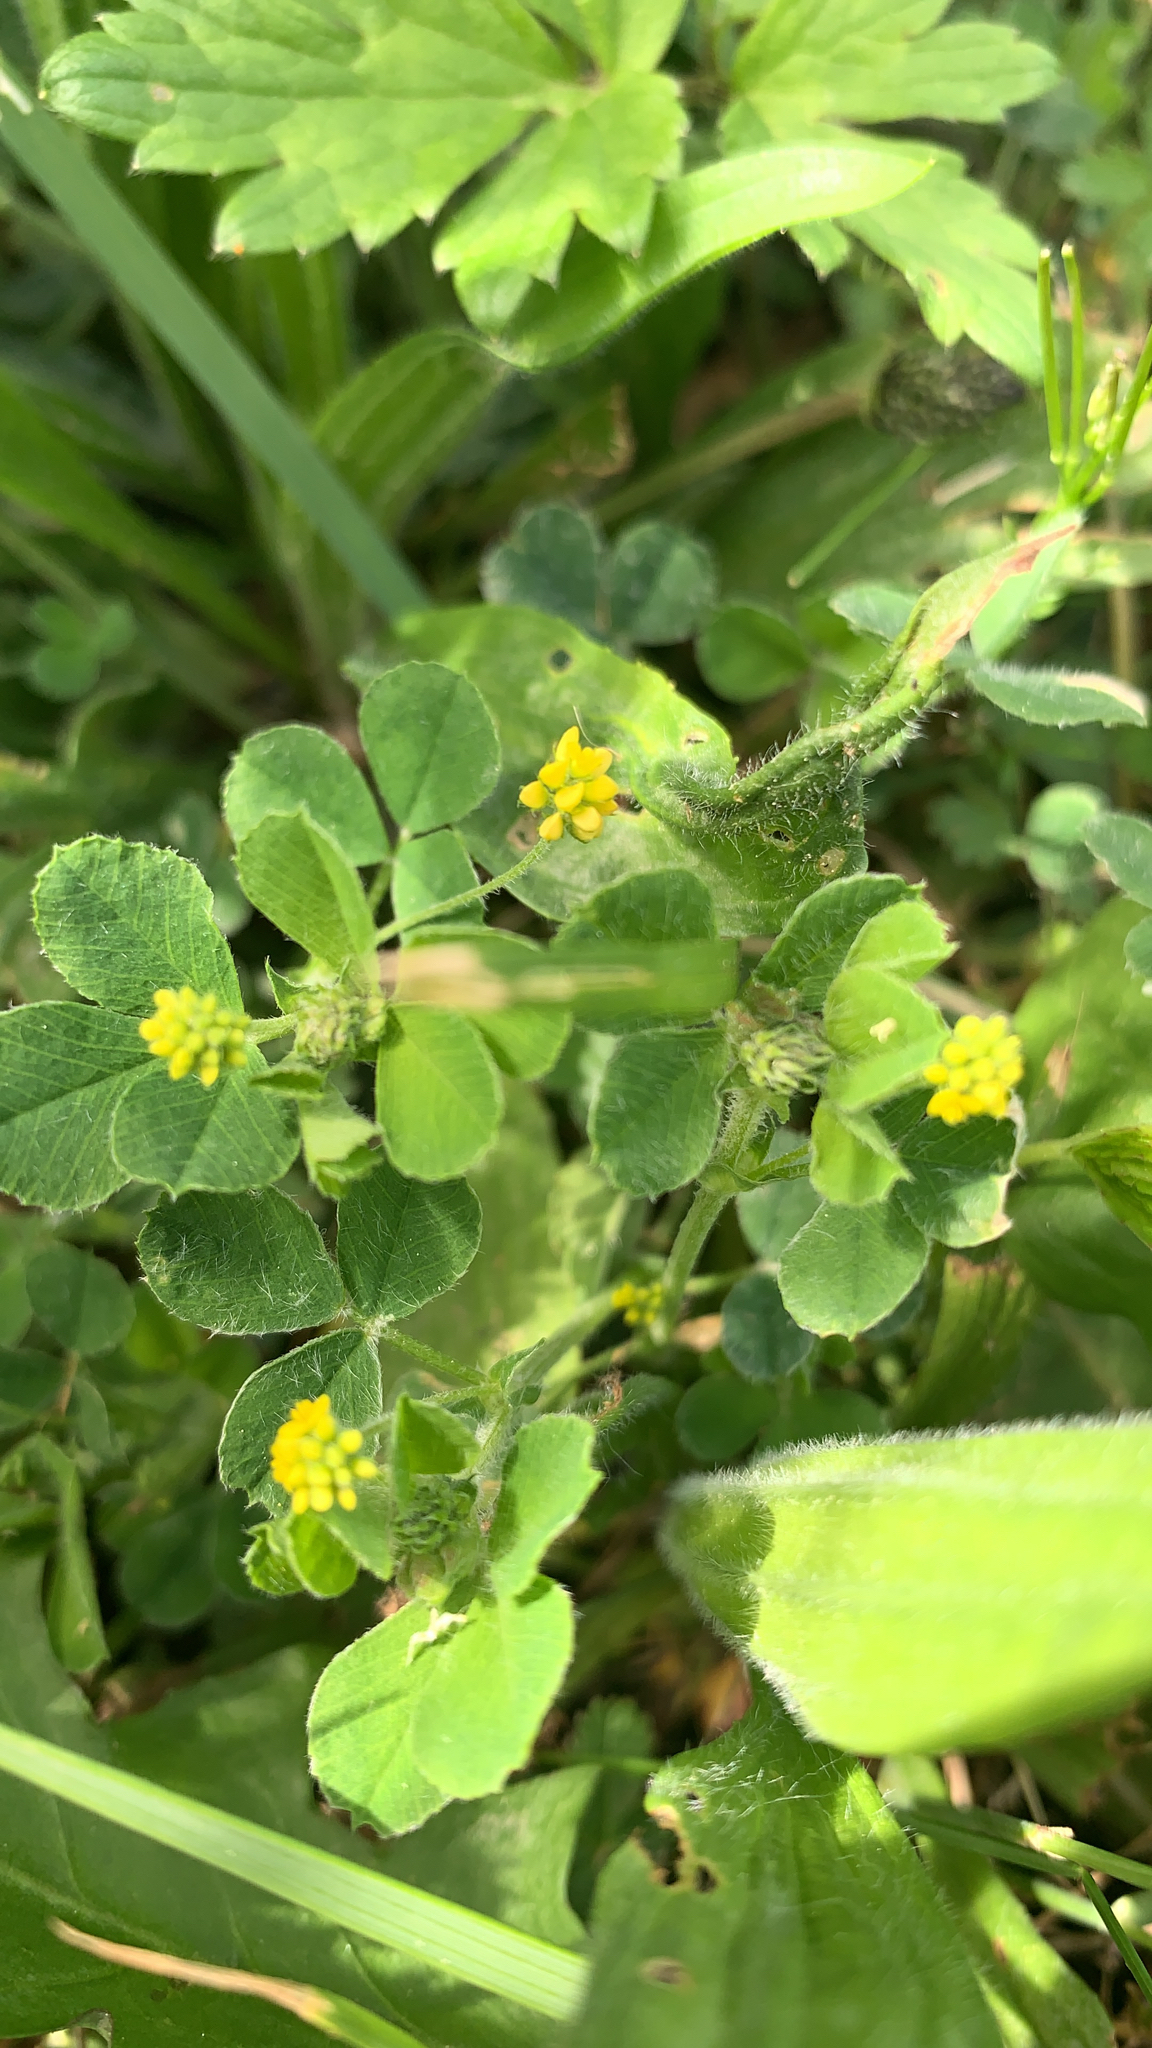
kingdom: Plantae
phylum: Tracheophyta
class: Magnoliopsida
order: Fabales
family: Fabaceae
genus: Medicago
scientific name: Medicago lupulina
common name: Black medick
